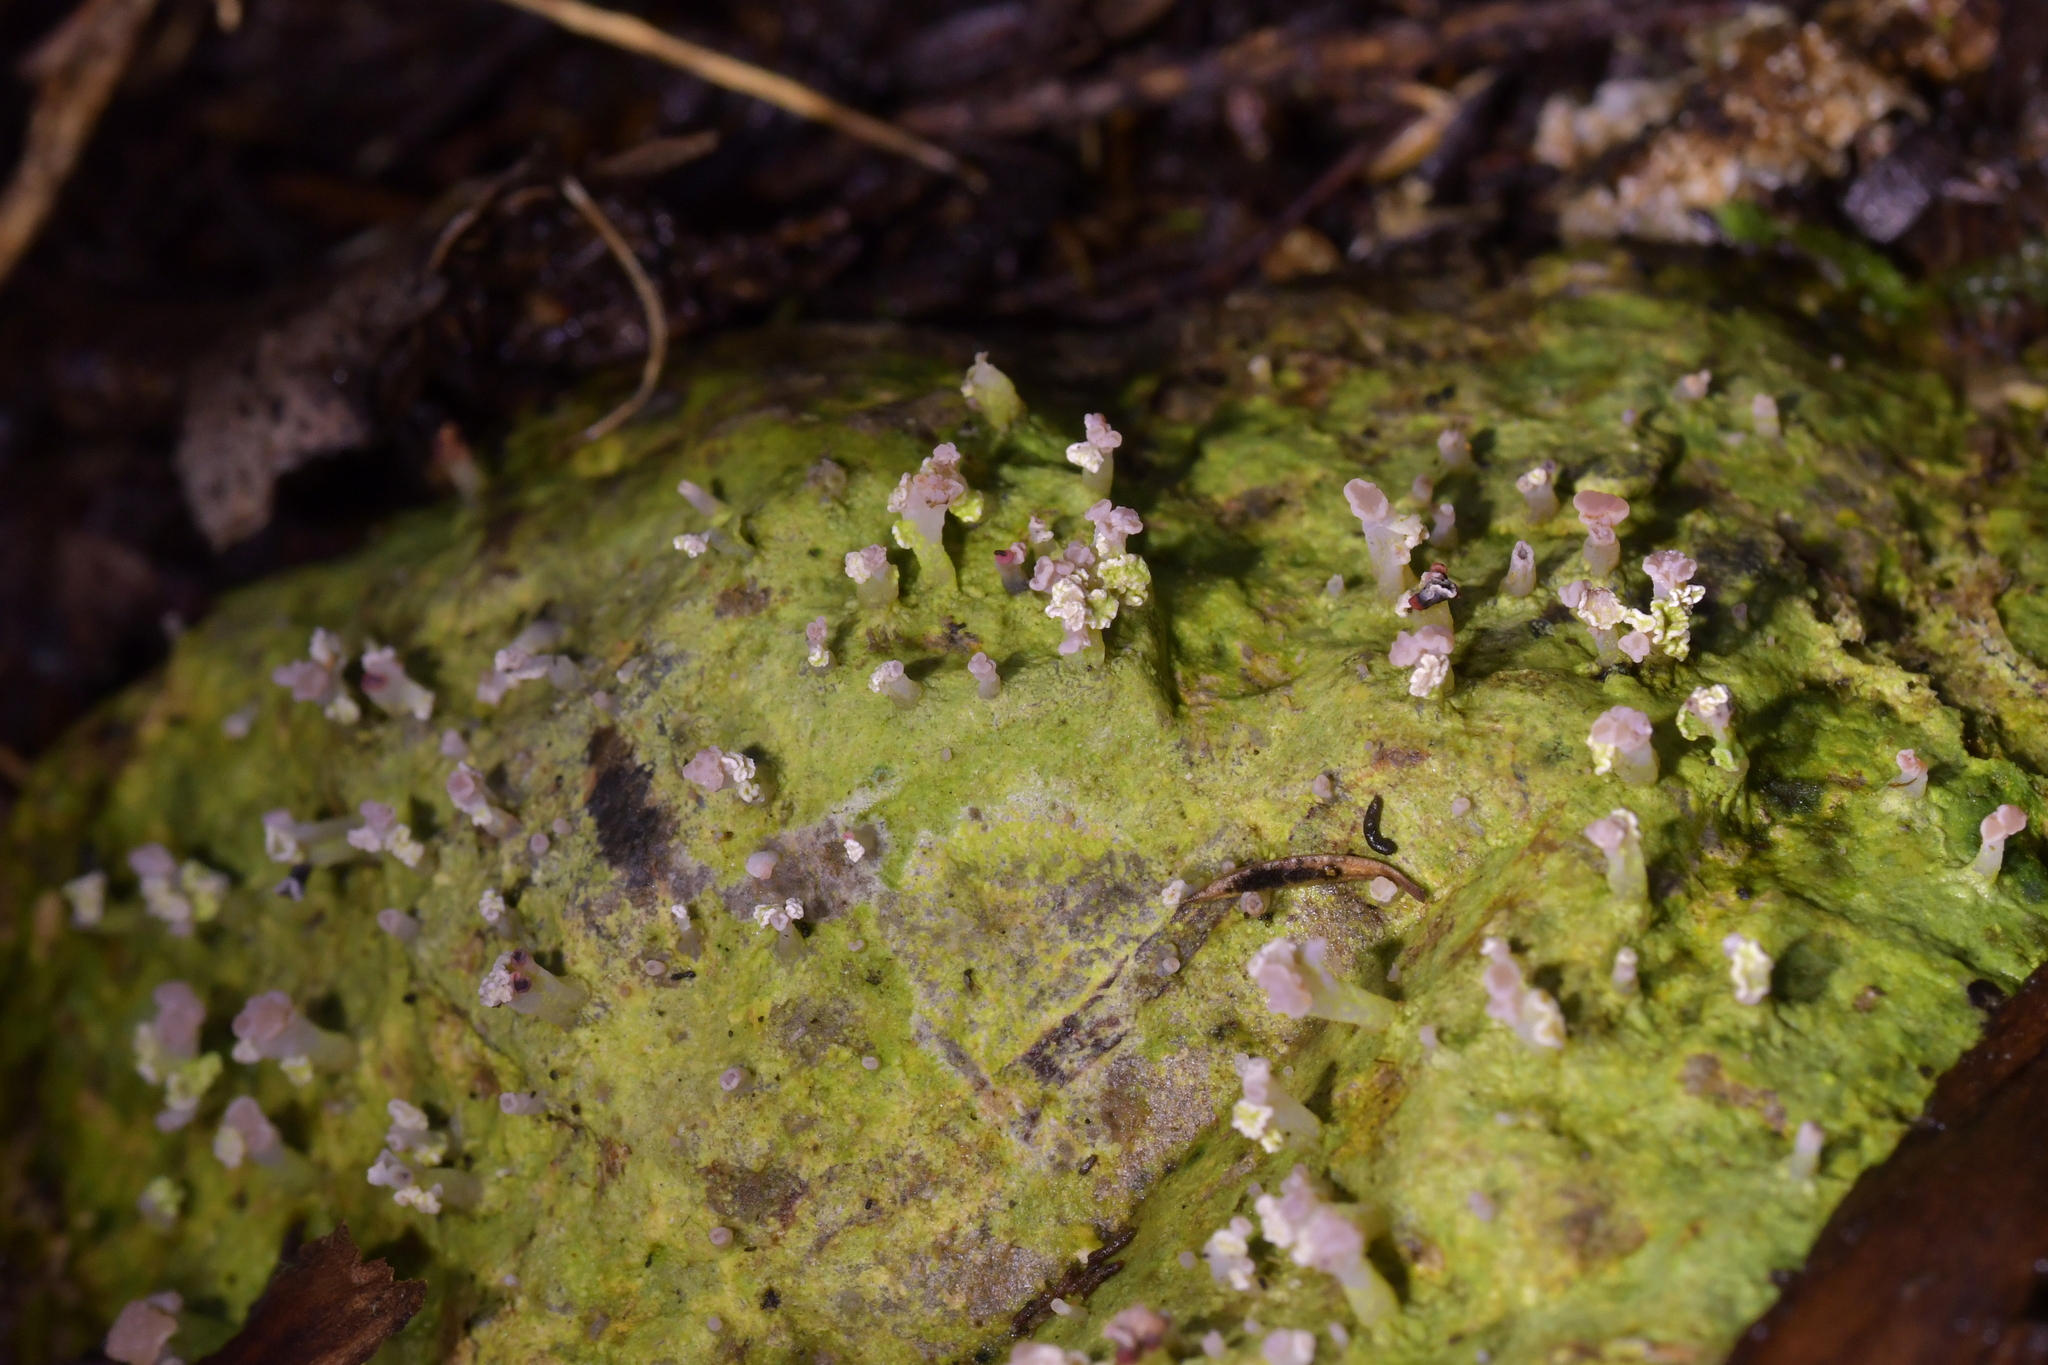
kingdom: Fungi
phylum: Ascomycota
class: Lecanoromycetes
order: Baeomycetales
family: Baeomycetaceae
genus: Baeomyces
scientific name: Baeomyces heteromorphus
